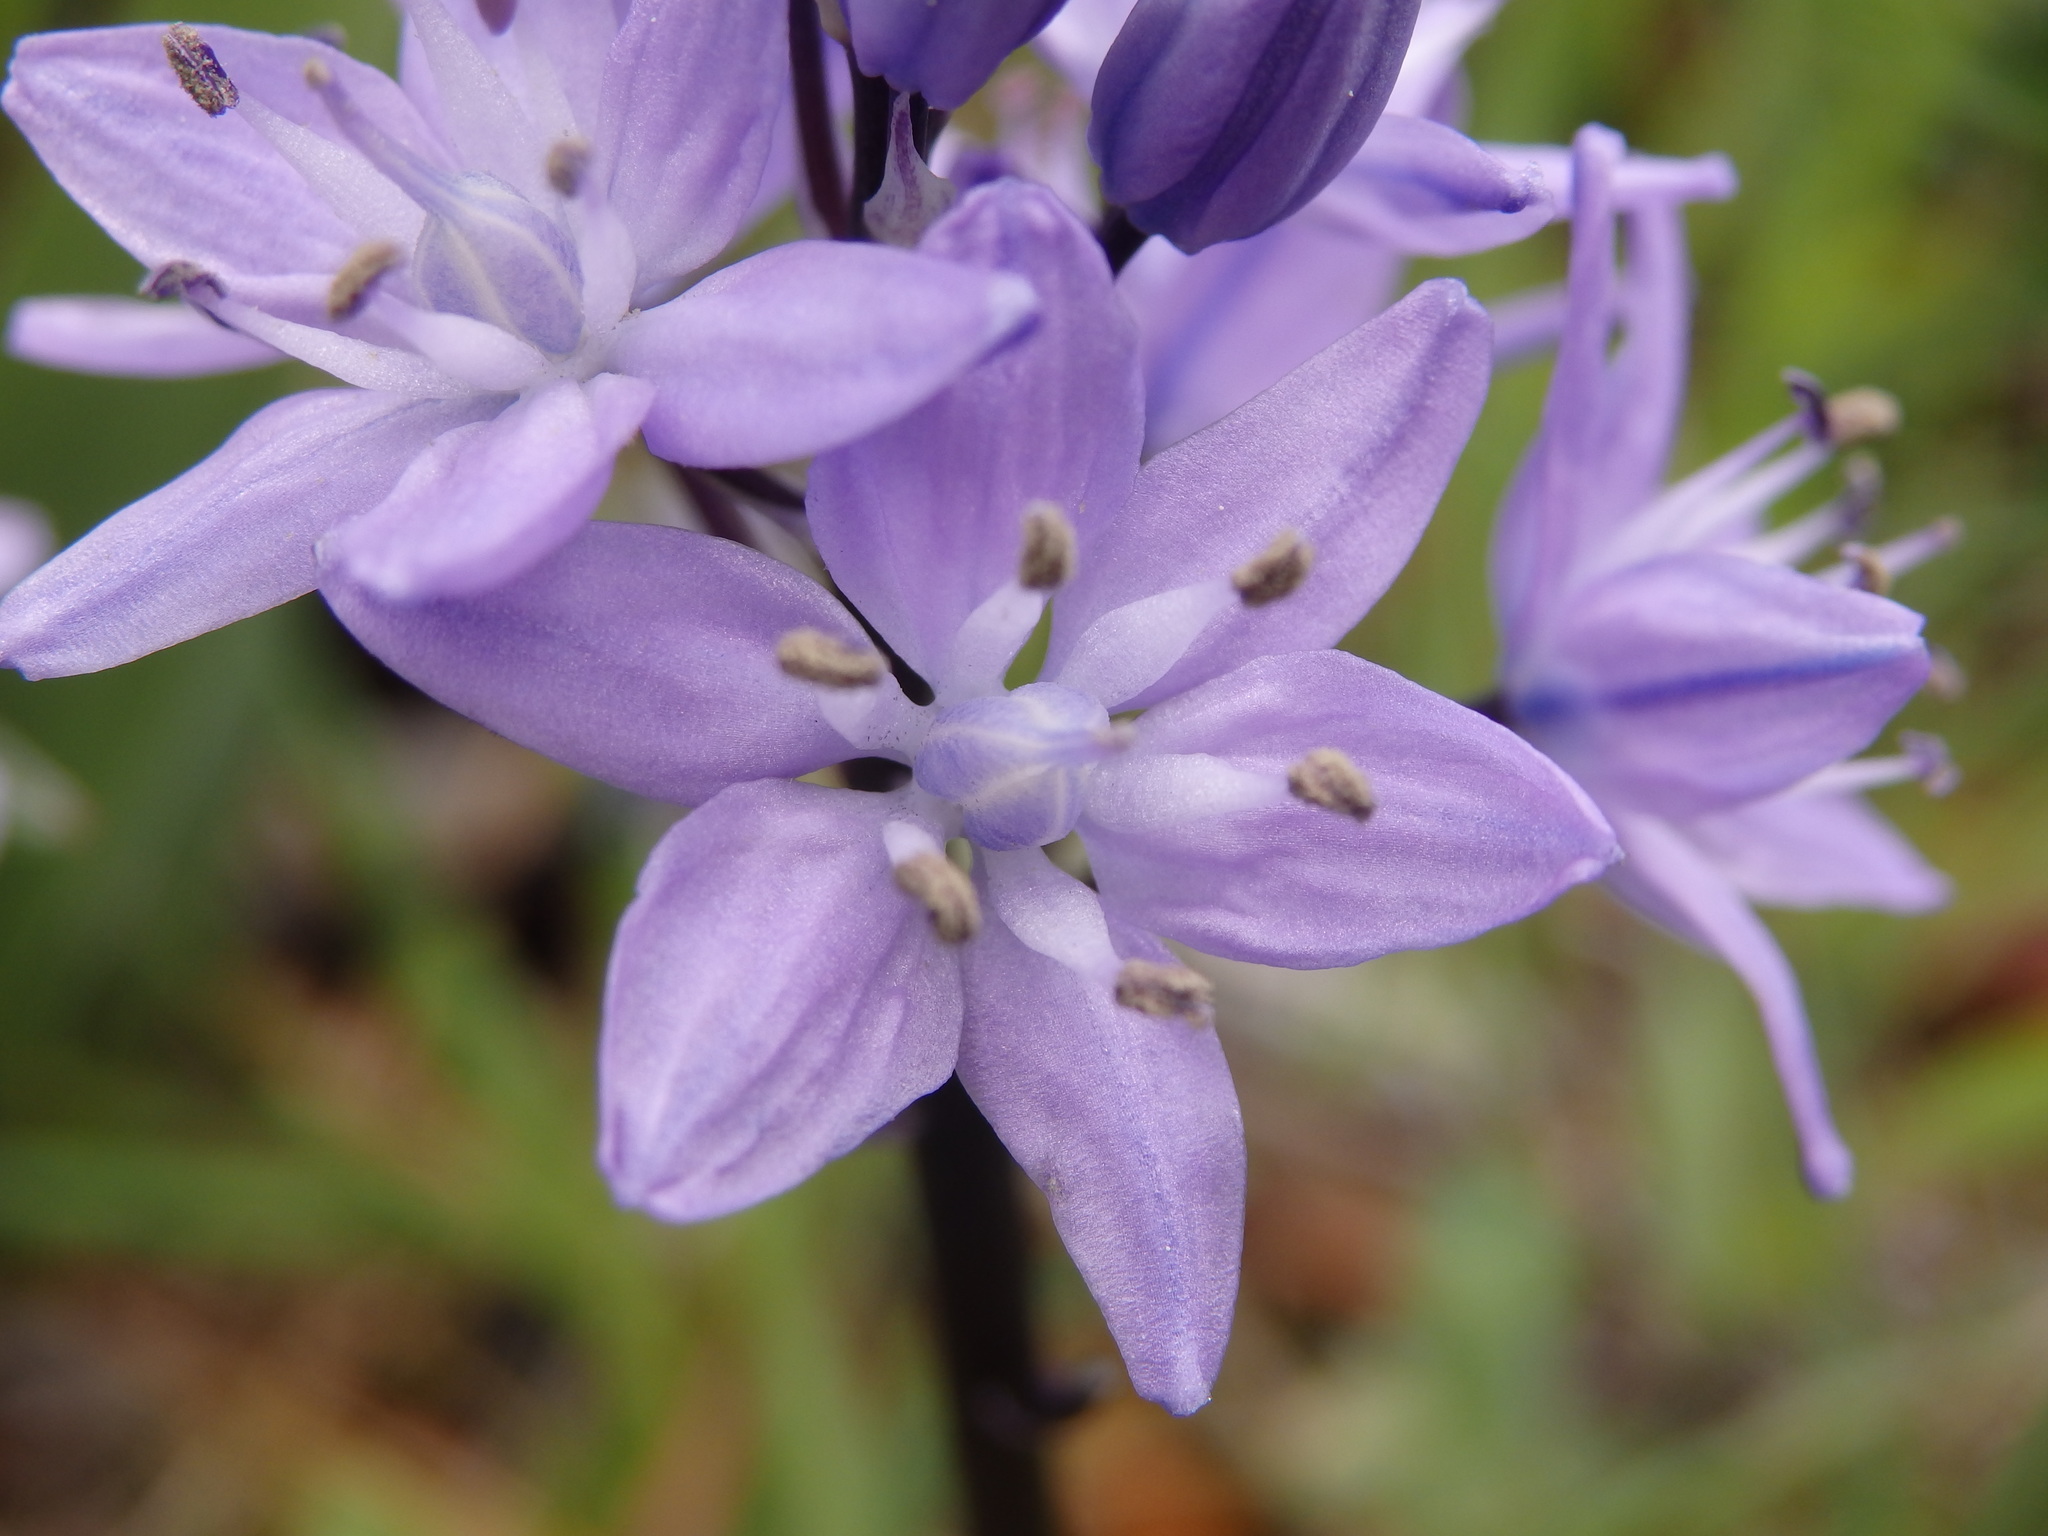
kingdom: Plantae
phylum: Tracheophyta
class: Liliopsida
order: Asparagales
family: Asparagaceae
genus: Scilla
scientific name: Scilla monophyllos
